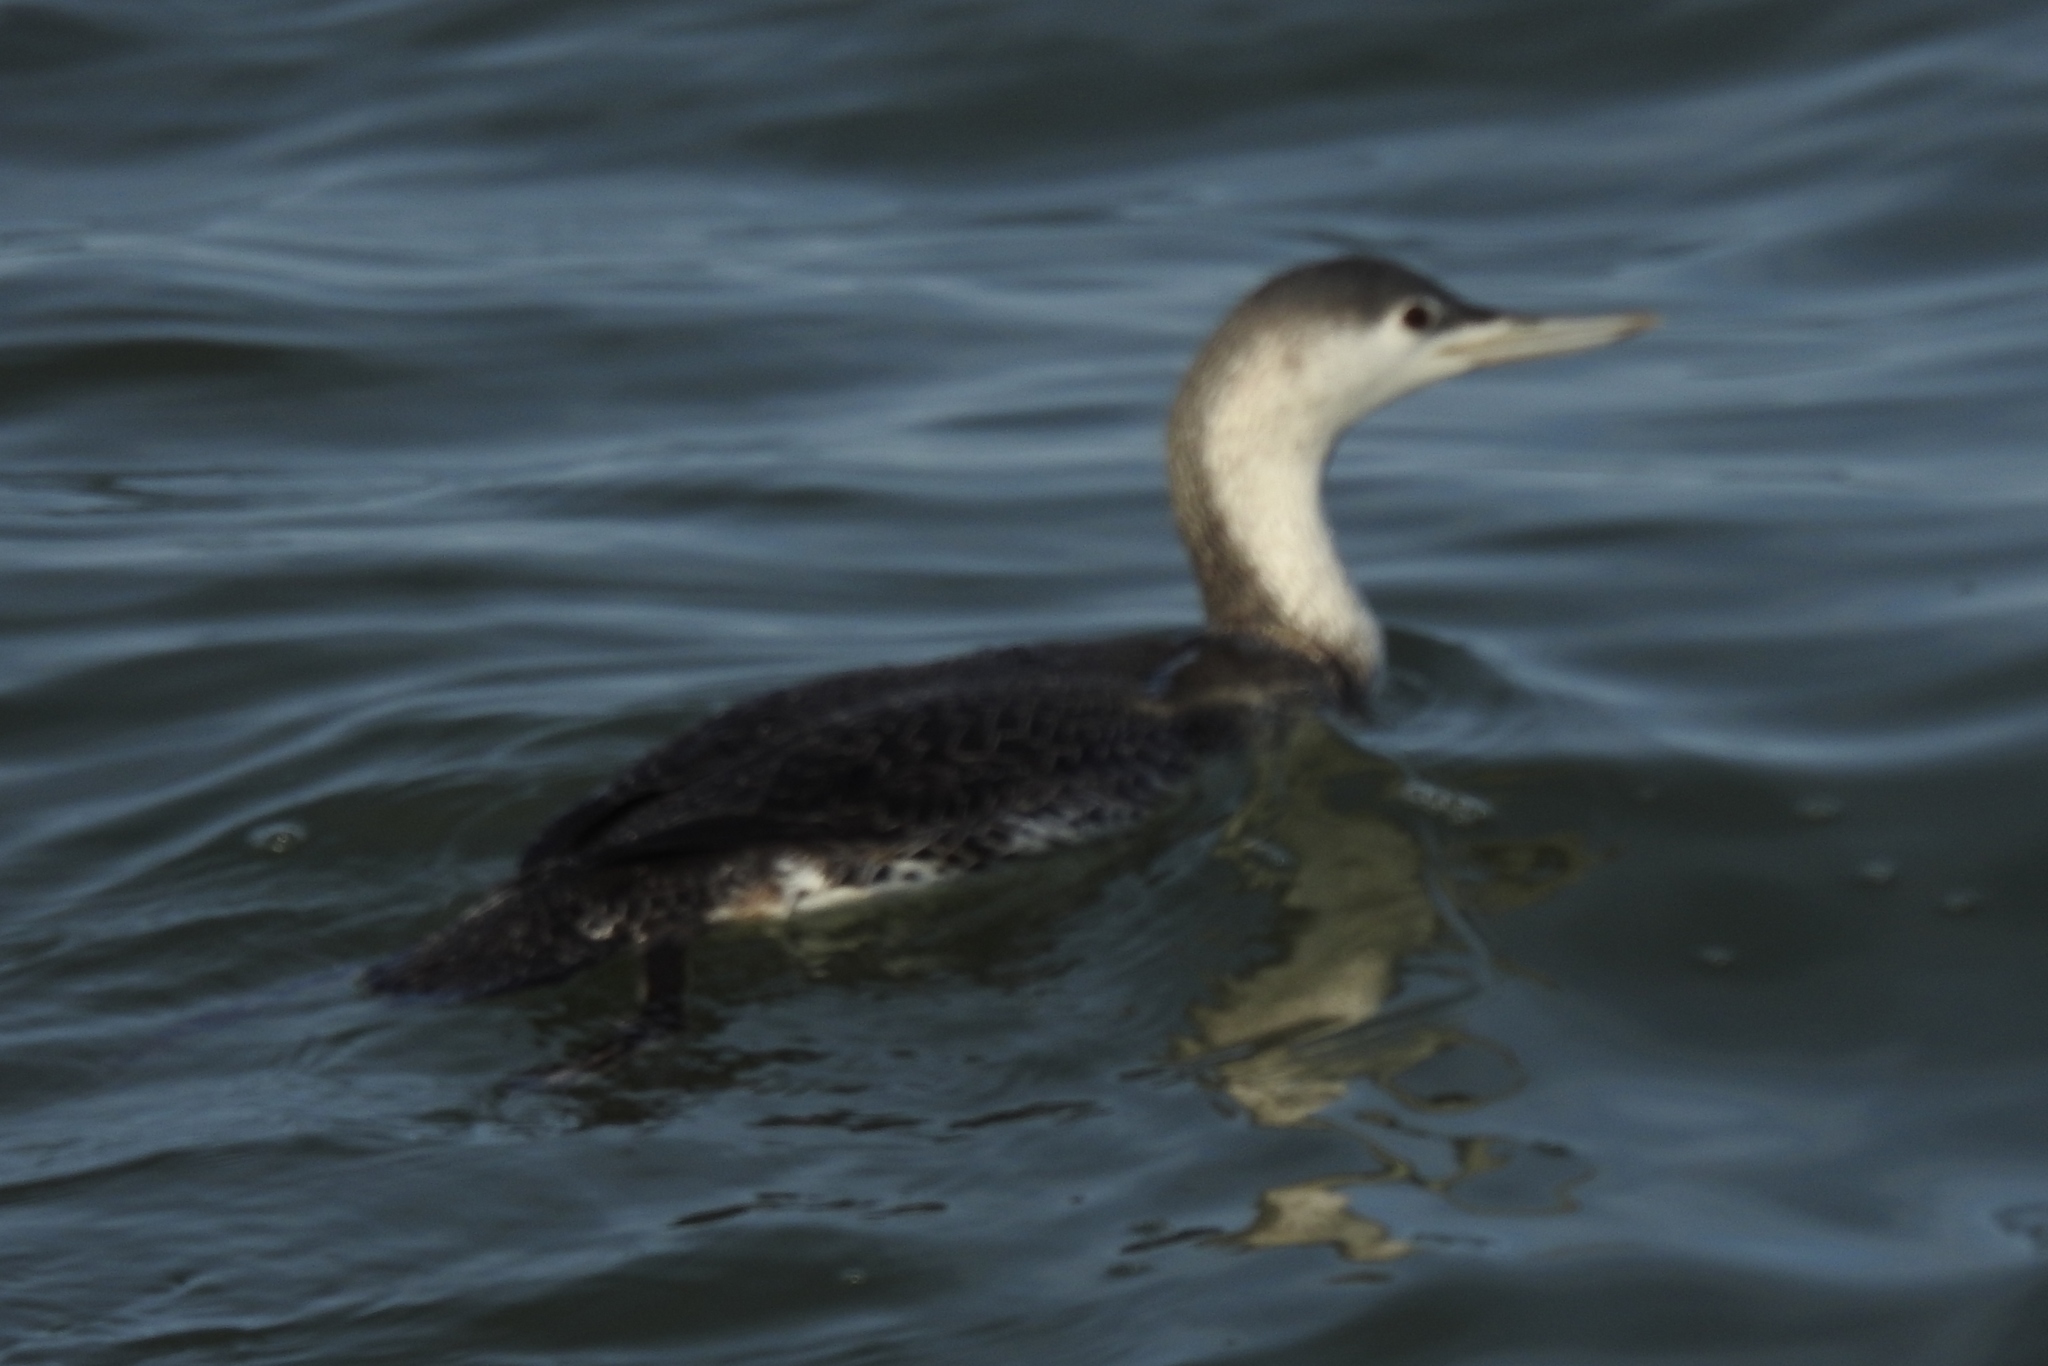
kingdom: Animalia
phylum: Chordata
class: Aves
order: Gaviiformes
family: Gaviidae
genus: Gavia
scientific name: Gavia stellata
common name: Red-throated loon
